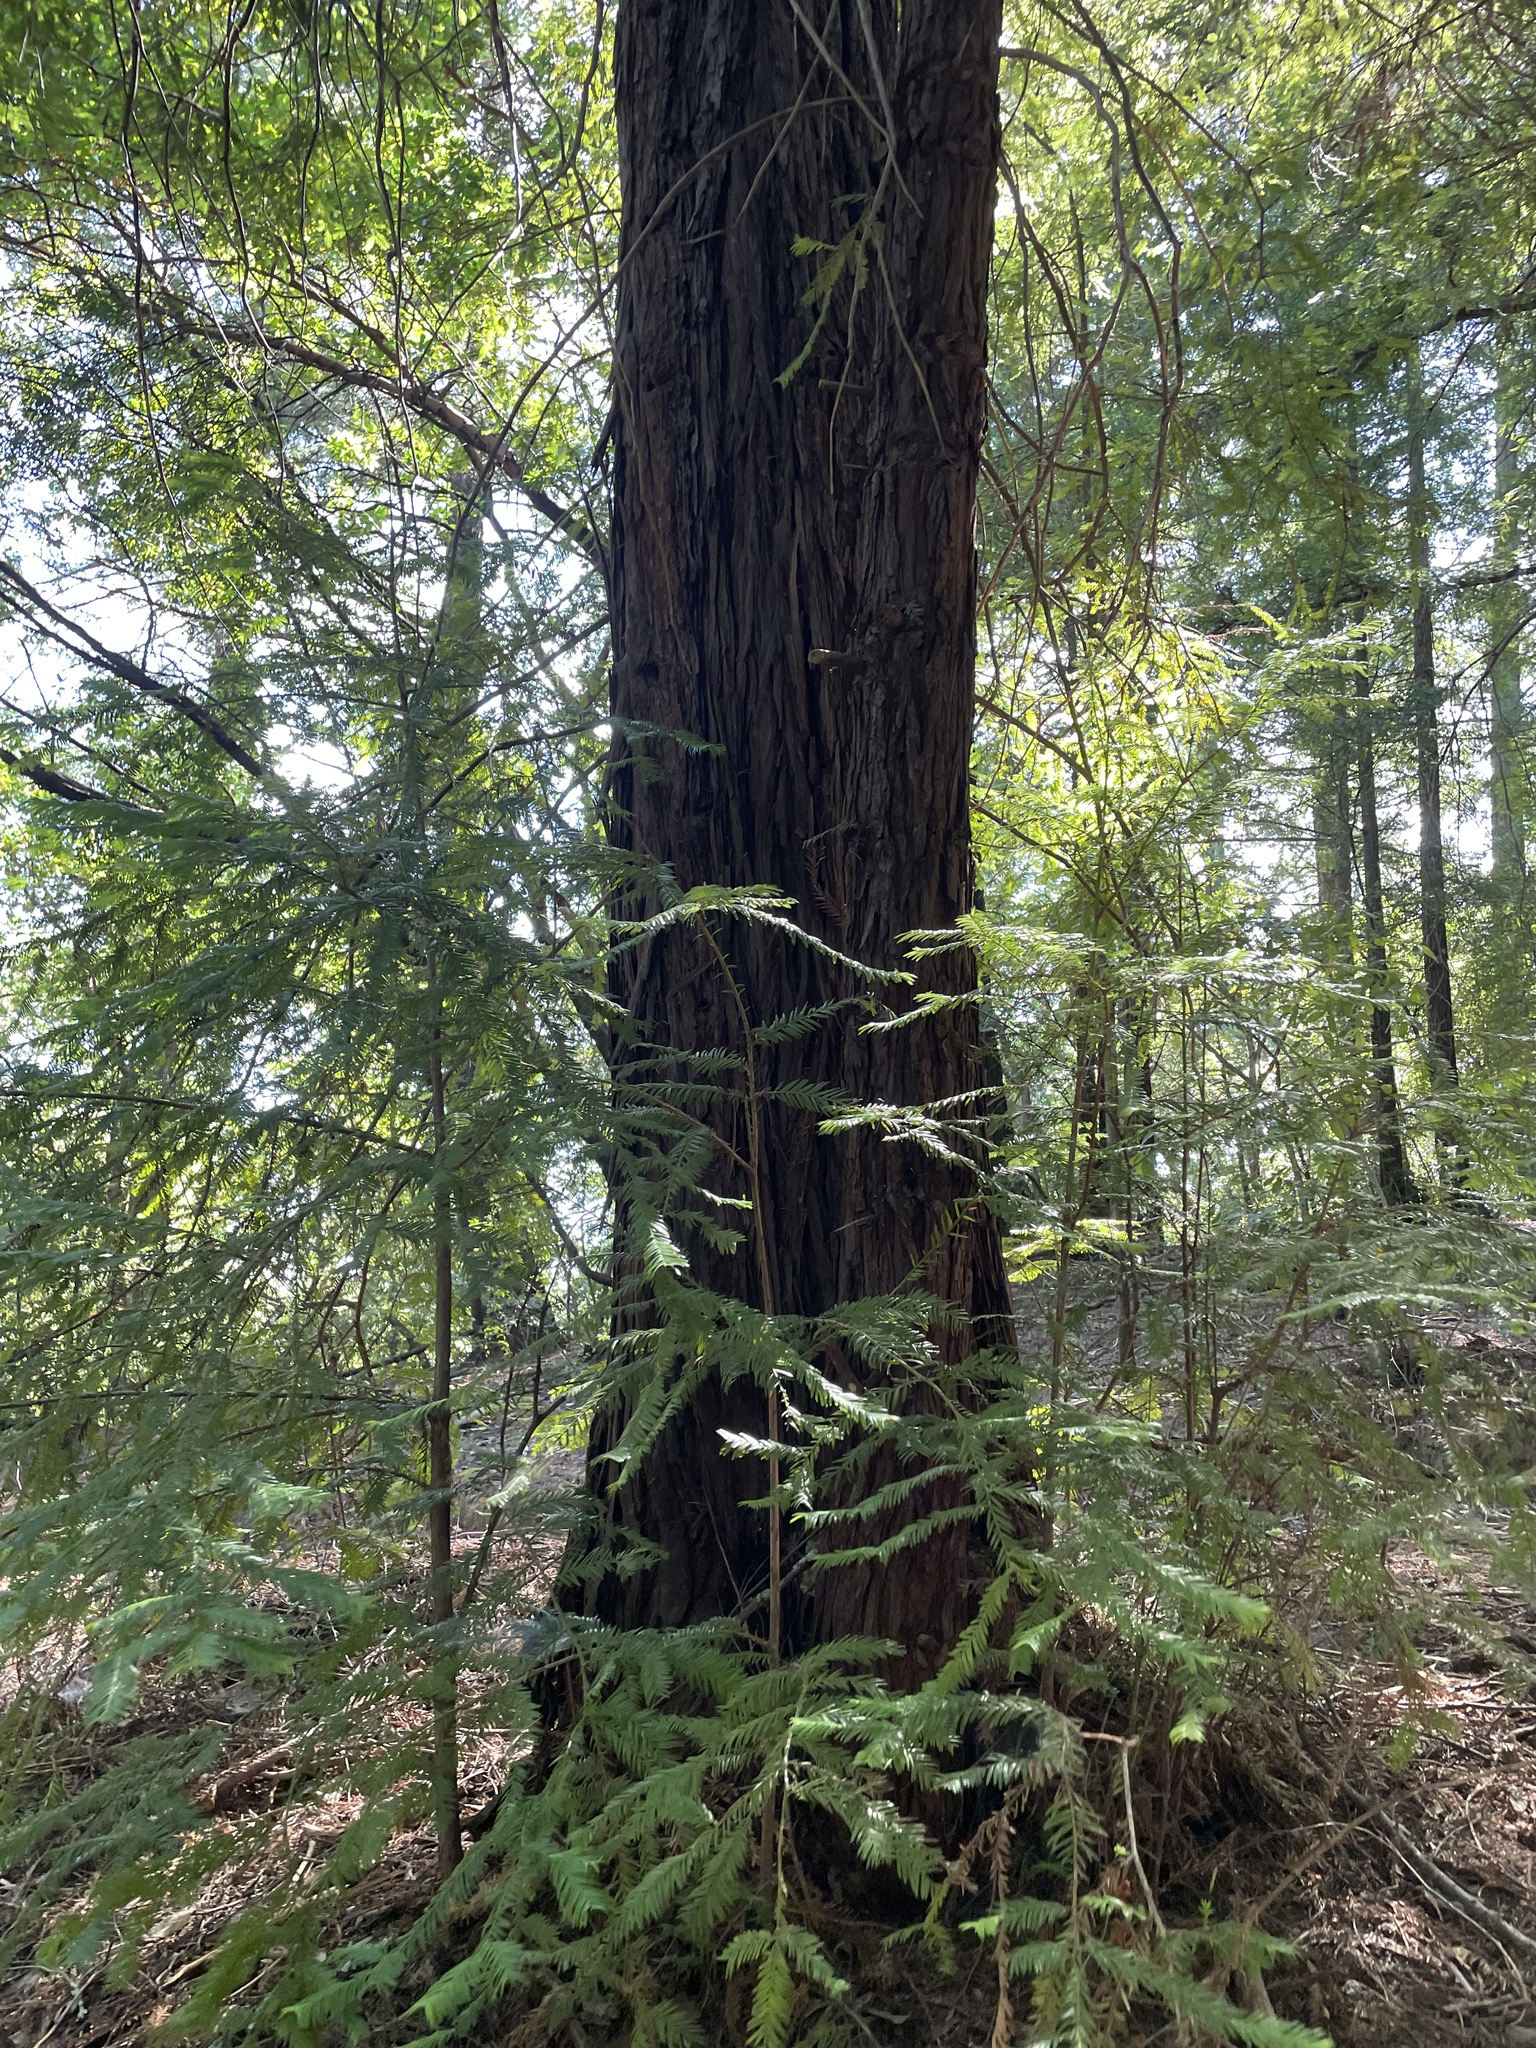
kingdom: Plantae
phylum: Tracheophyta
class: Pinopsida
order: Pinales
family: Cupressaceae
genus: Sequoia
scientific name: Sequoia sempervirens
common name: Coast redwood
